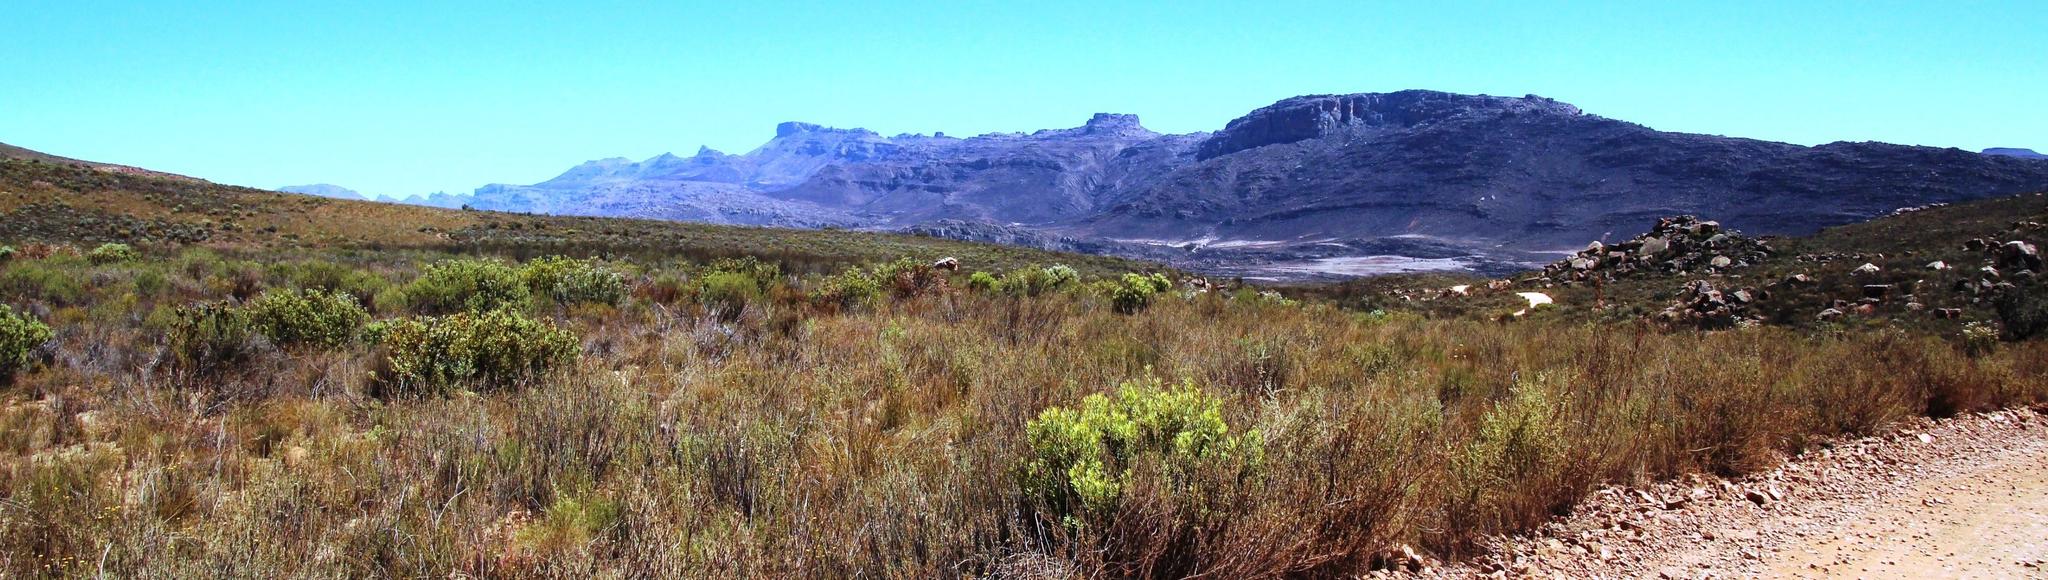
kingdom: Plantae
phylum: Tracheophyta
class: Magnoliopsida
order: Proteales
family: Proteaceae
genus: Leucadendron
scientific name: Leucadendron salignum
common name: Common sunshine conebush
